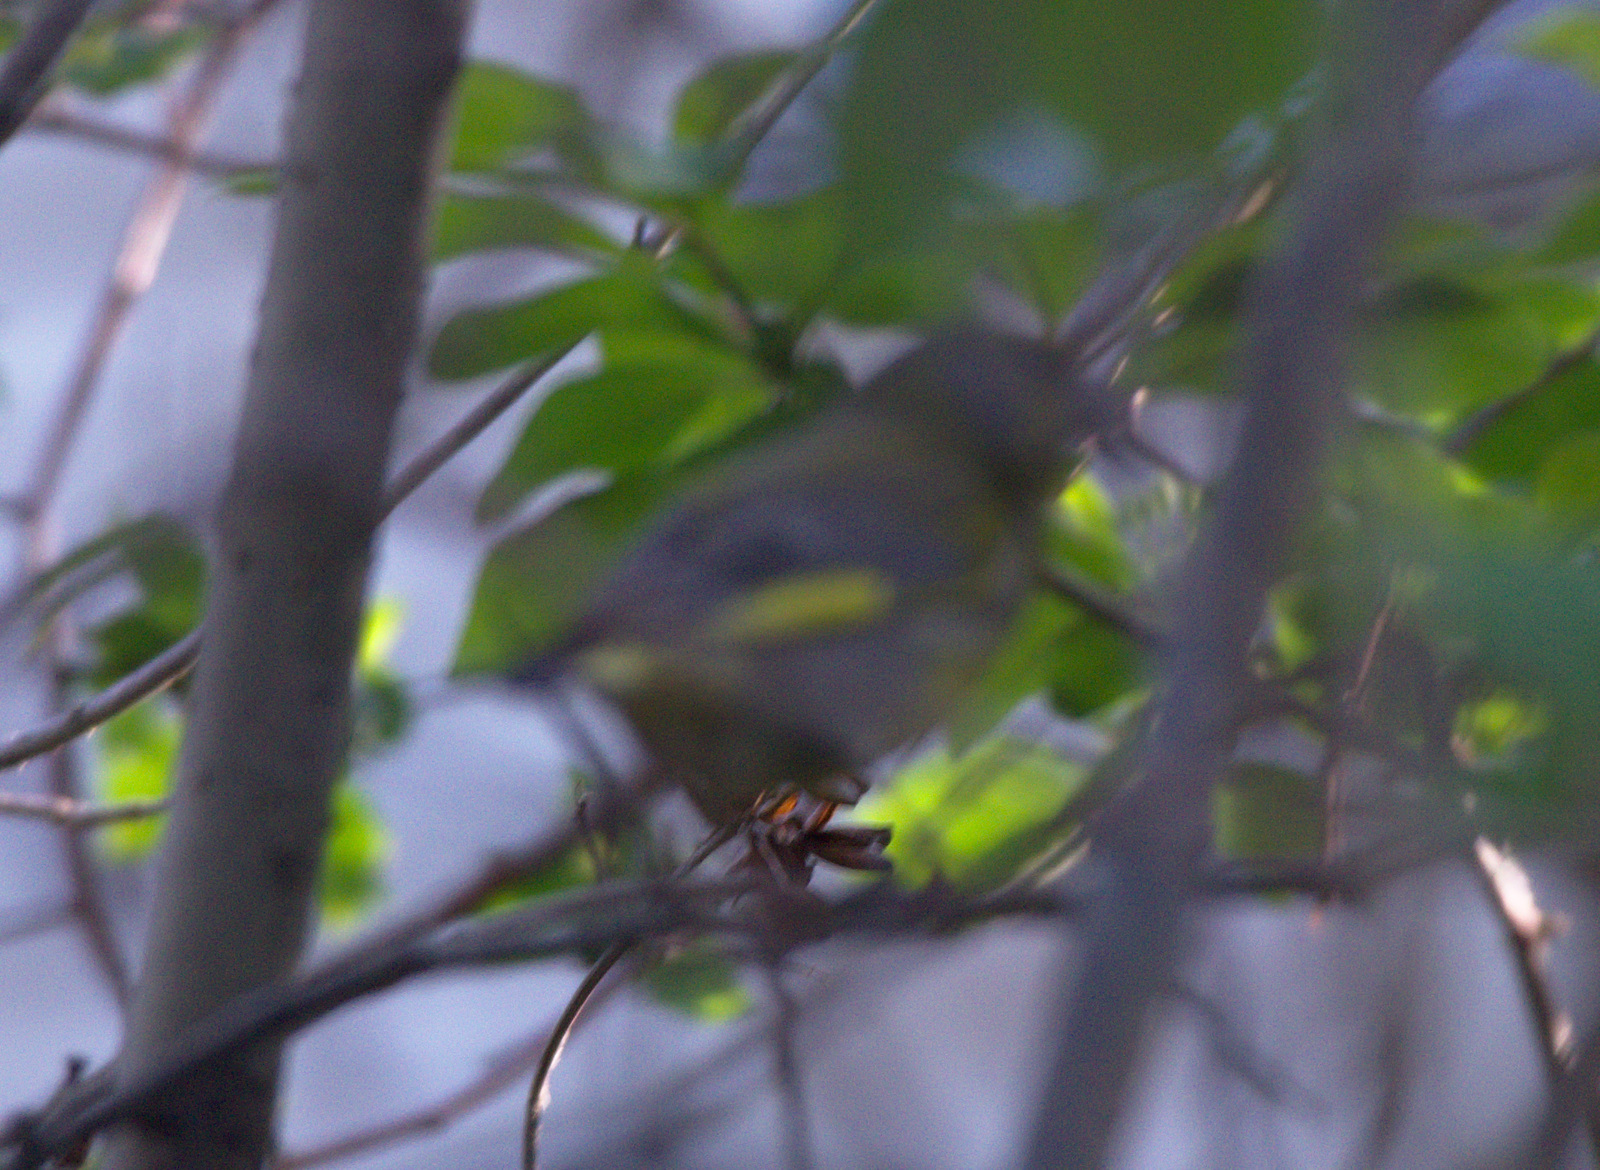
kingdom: Plantae
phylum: Tracheophyta
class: Liliopsida
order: Poales
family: Poaceae
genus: Chloris
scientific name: Chloris chloris
